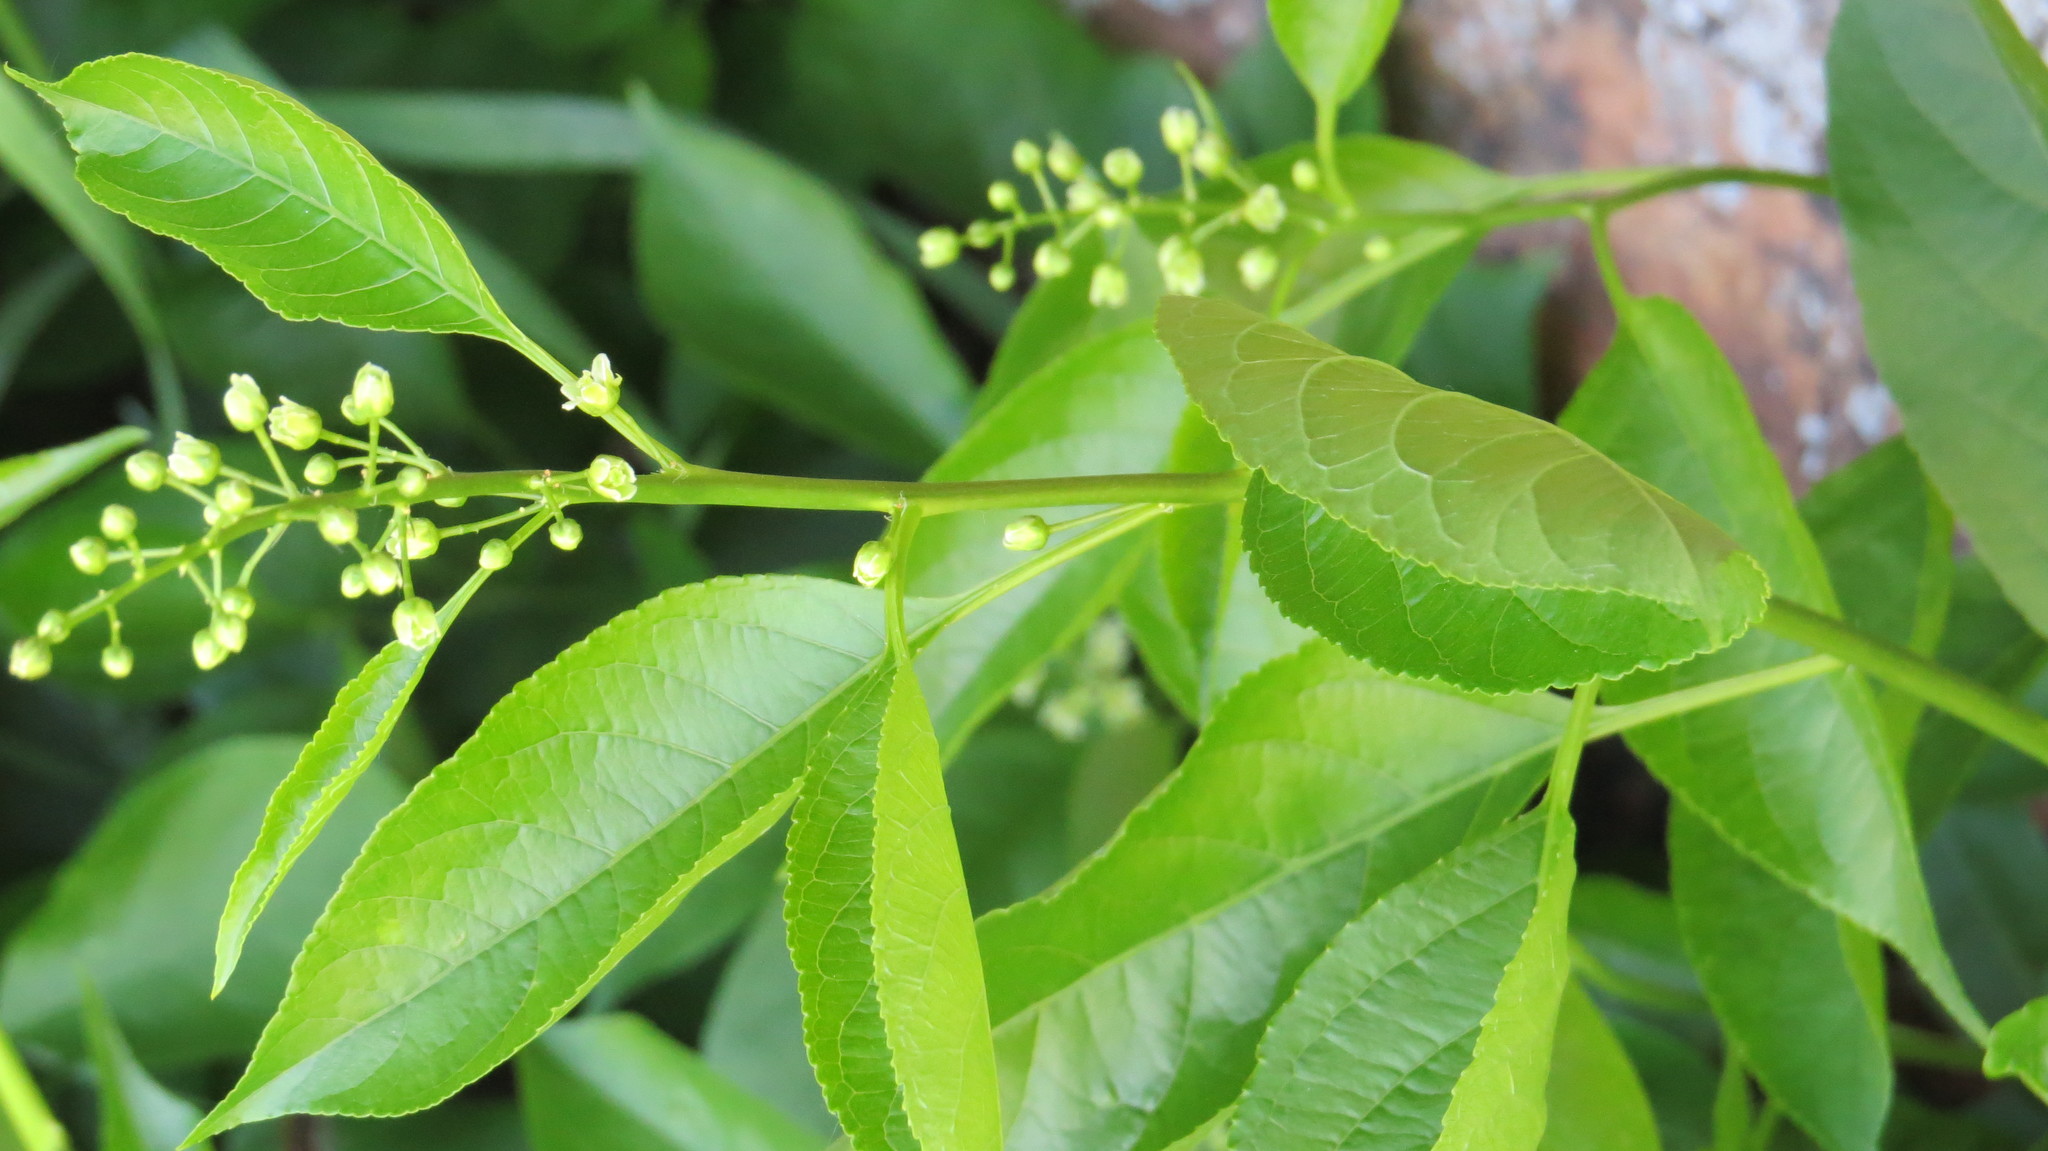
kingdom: Plantae
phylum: Tracheophyta
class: Magnoliopsida
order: Celastrales
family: Celastraceae
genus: Celastrus
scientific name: Celastrus scandens
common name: American bittersweet
